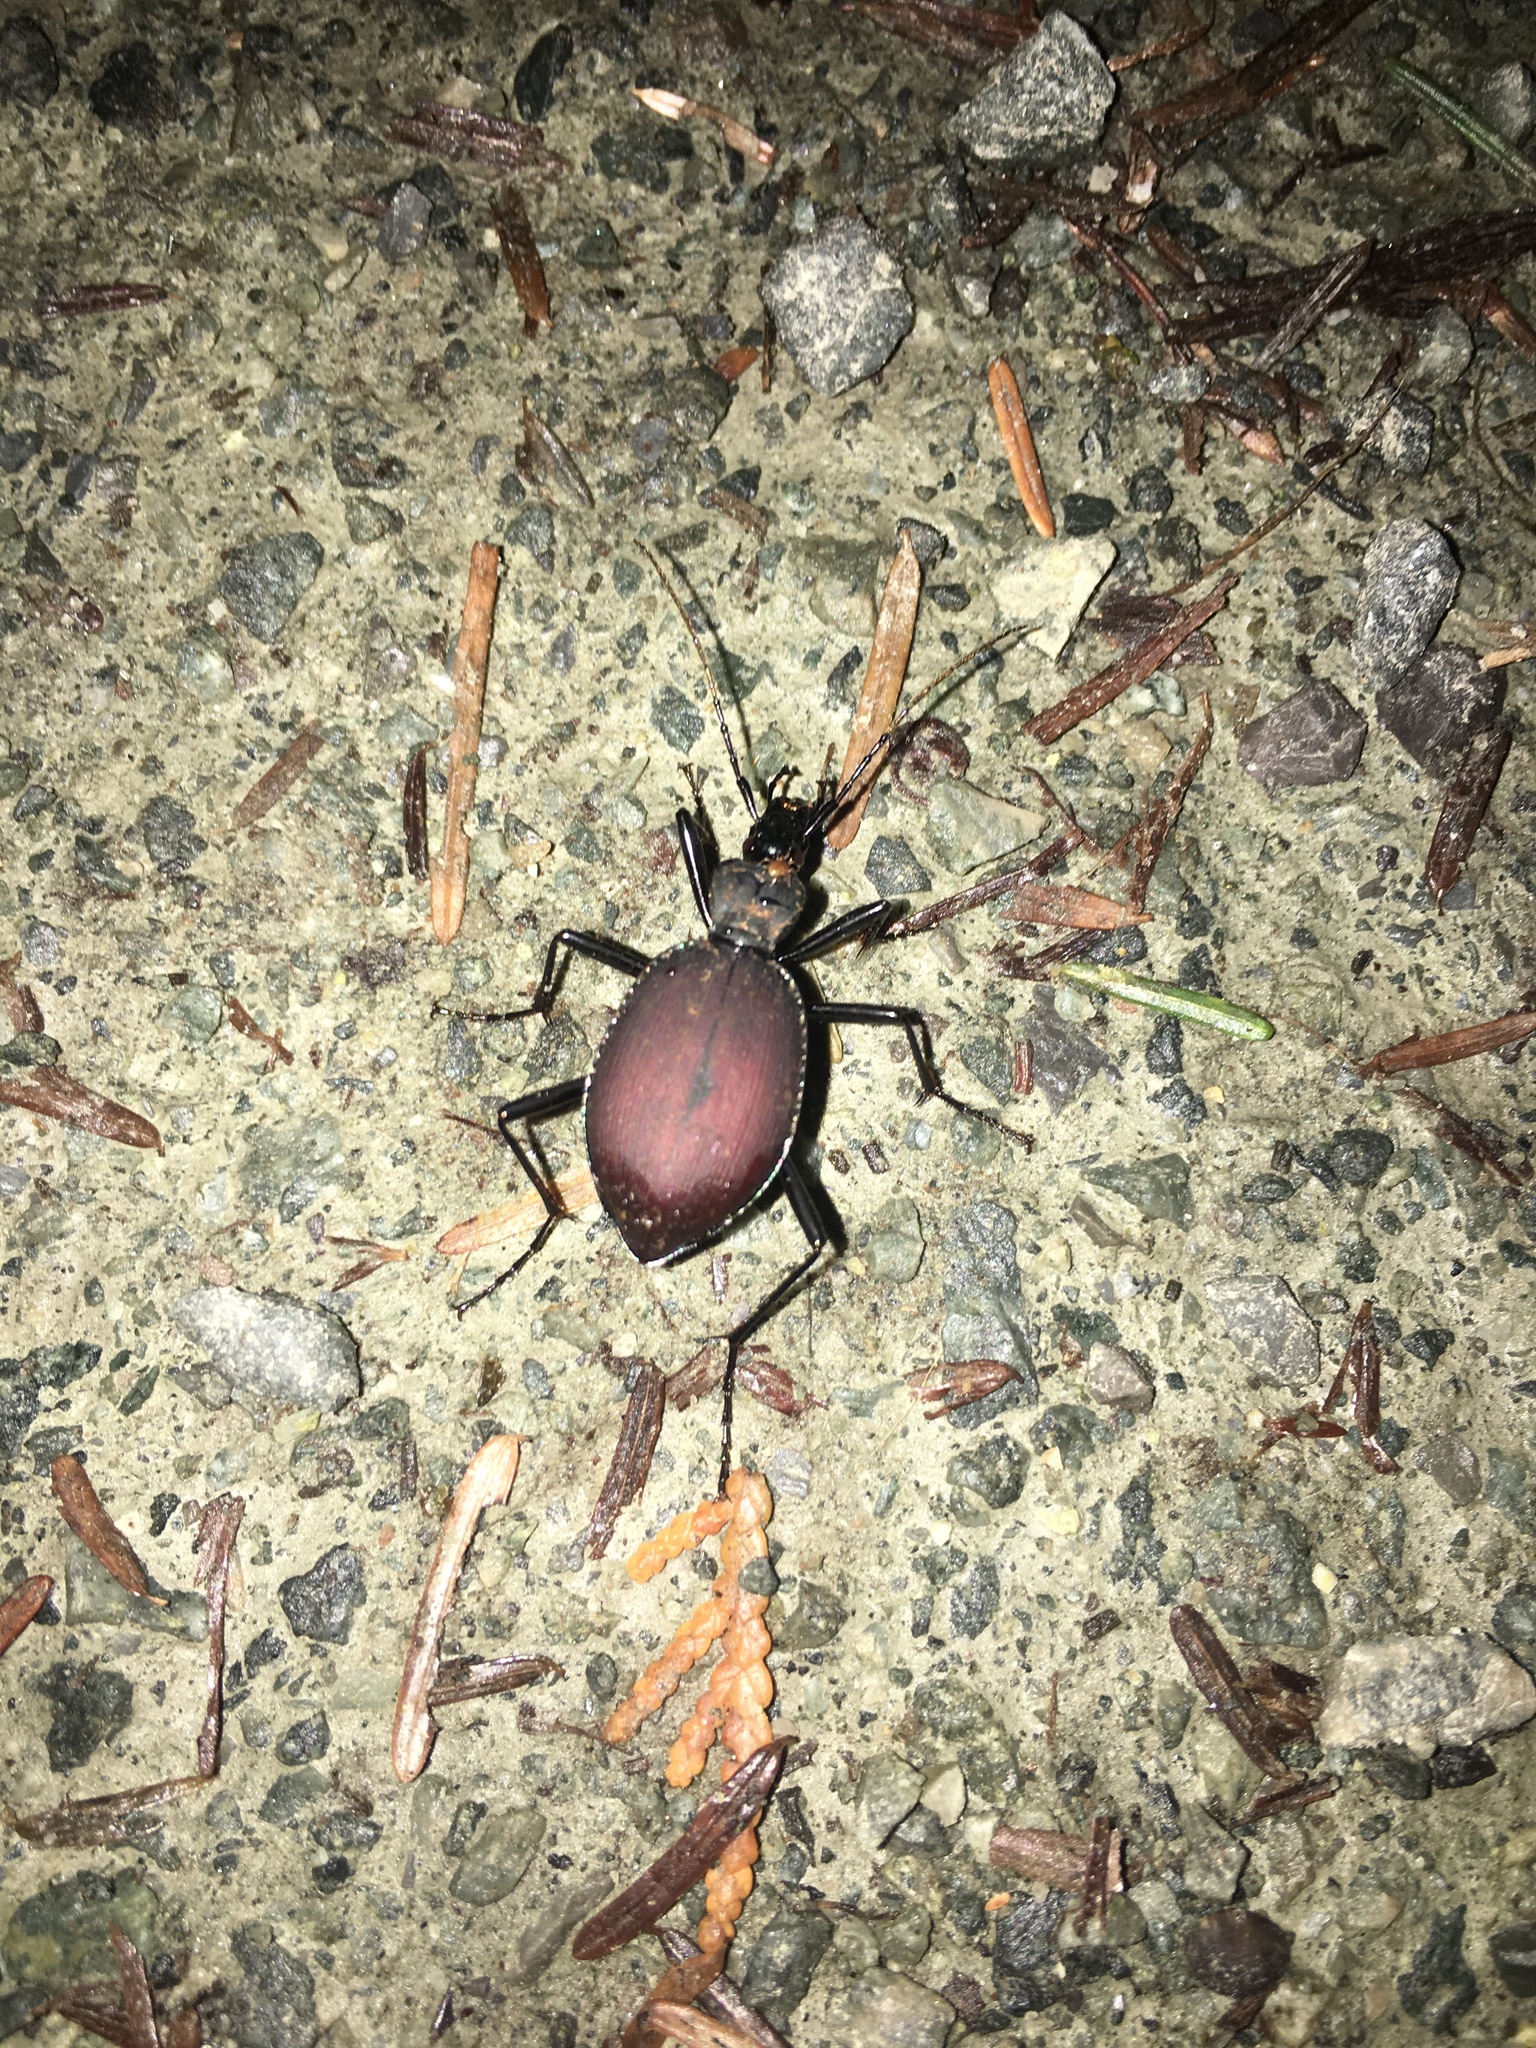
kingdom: Animalia
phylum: Arthropoda
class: Insecta
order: Coleoptera
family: Carabidae
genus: Scaphinotus
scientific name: Scaphinotus angusticollis
